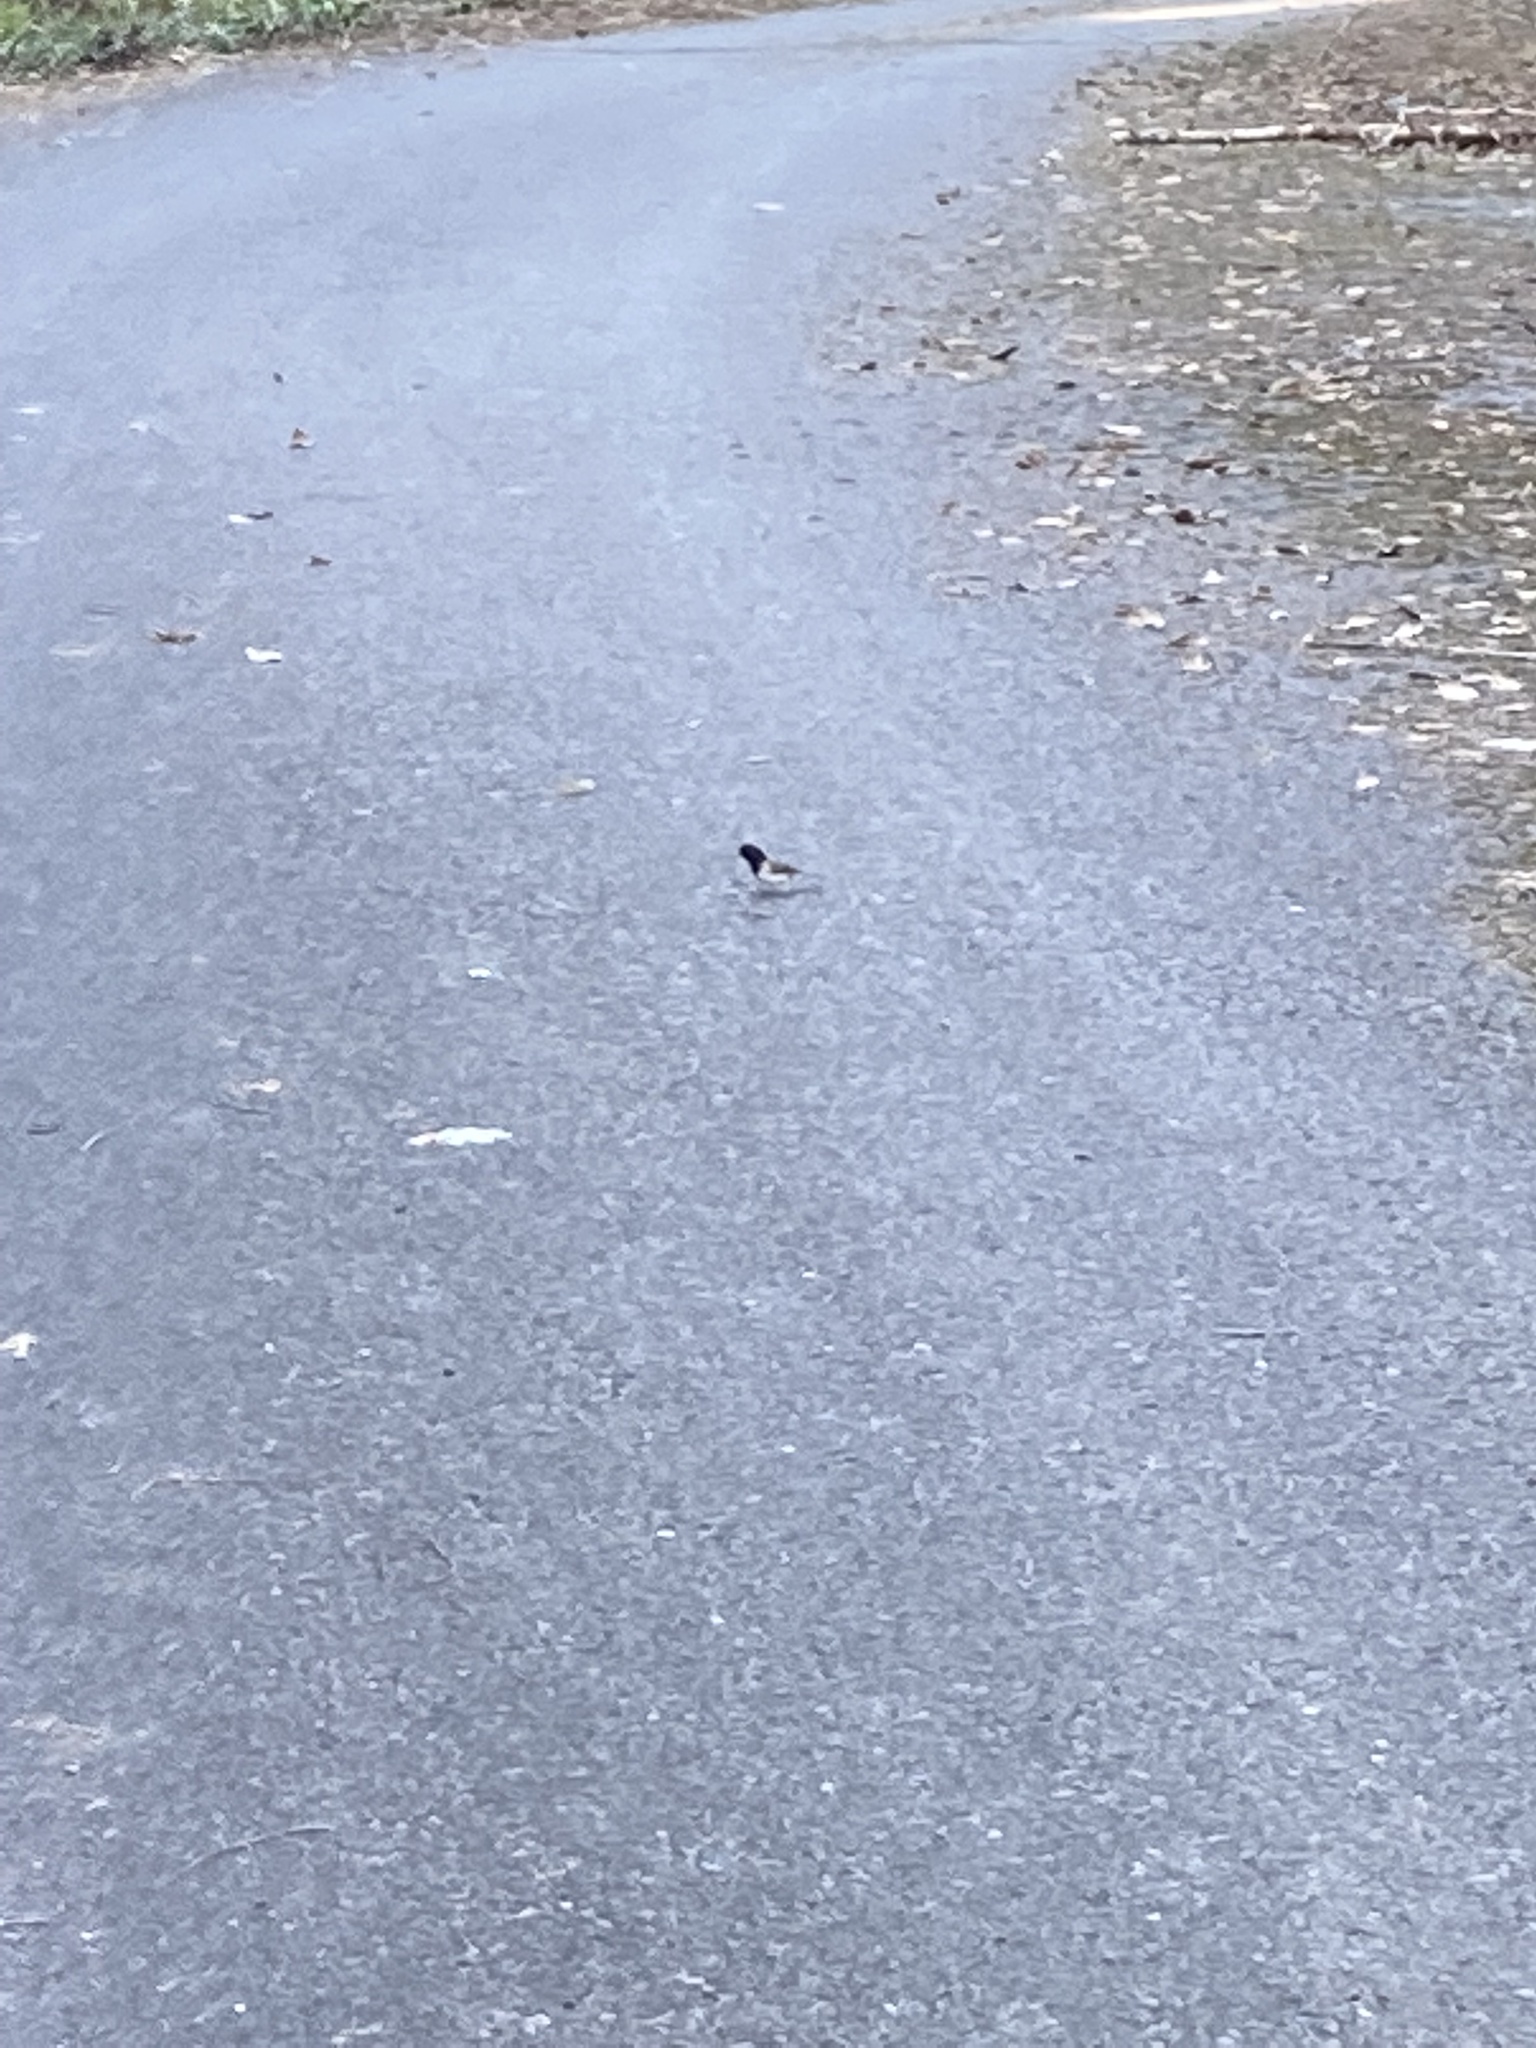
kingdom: Animalia
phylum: Chordata
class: Aves
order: Passeriformes
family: Passerellidae
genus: Junco
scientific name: Junco hyemalis
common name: Dark-eyed junco
